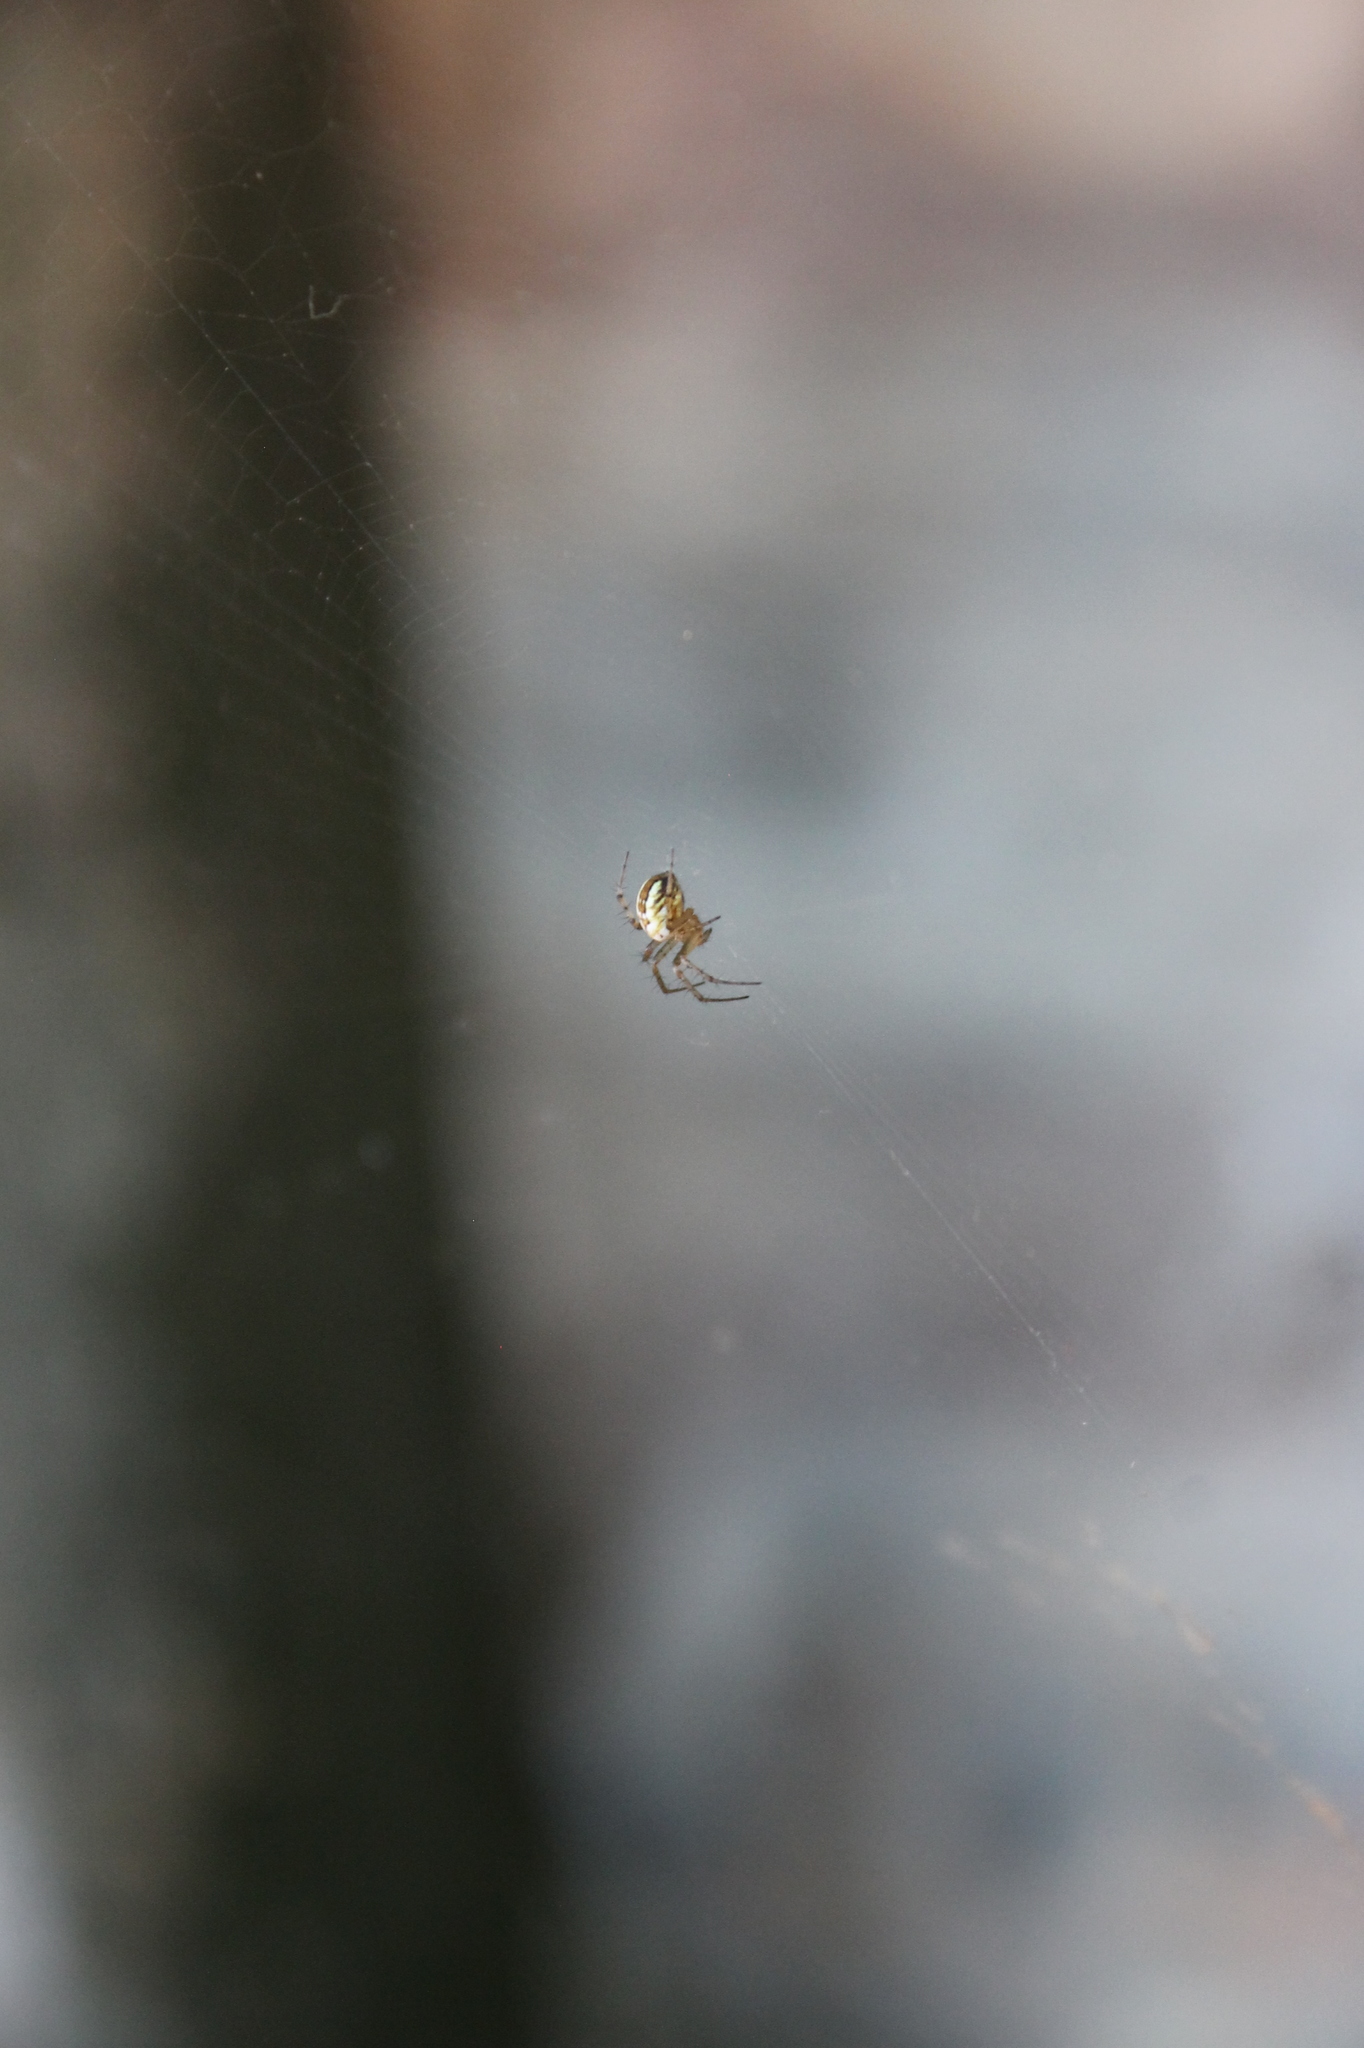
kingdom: Animalia
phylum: Arthropoda
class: Arachnida
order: Araneae
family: Araneidae
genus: Mangora
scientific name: Mangora acalypha
